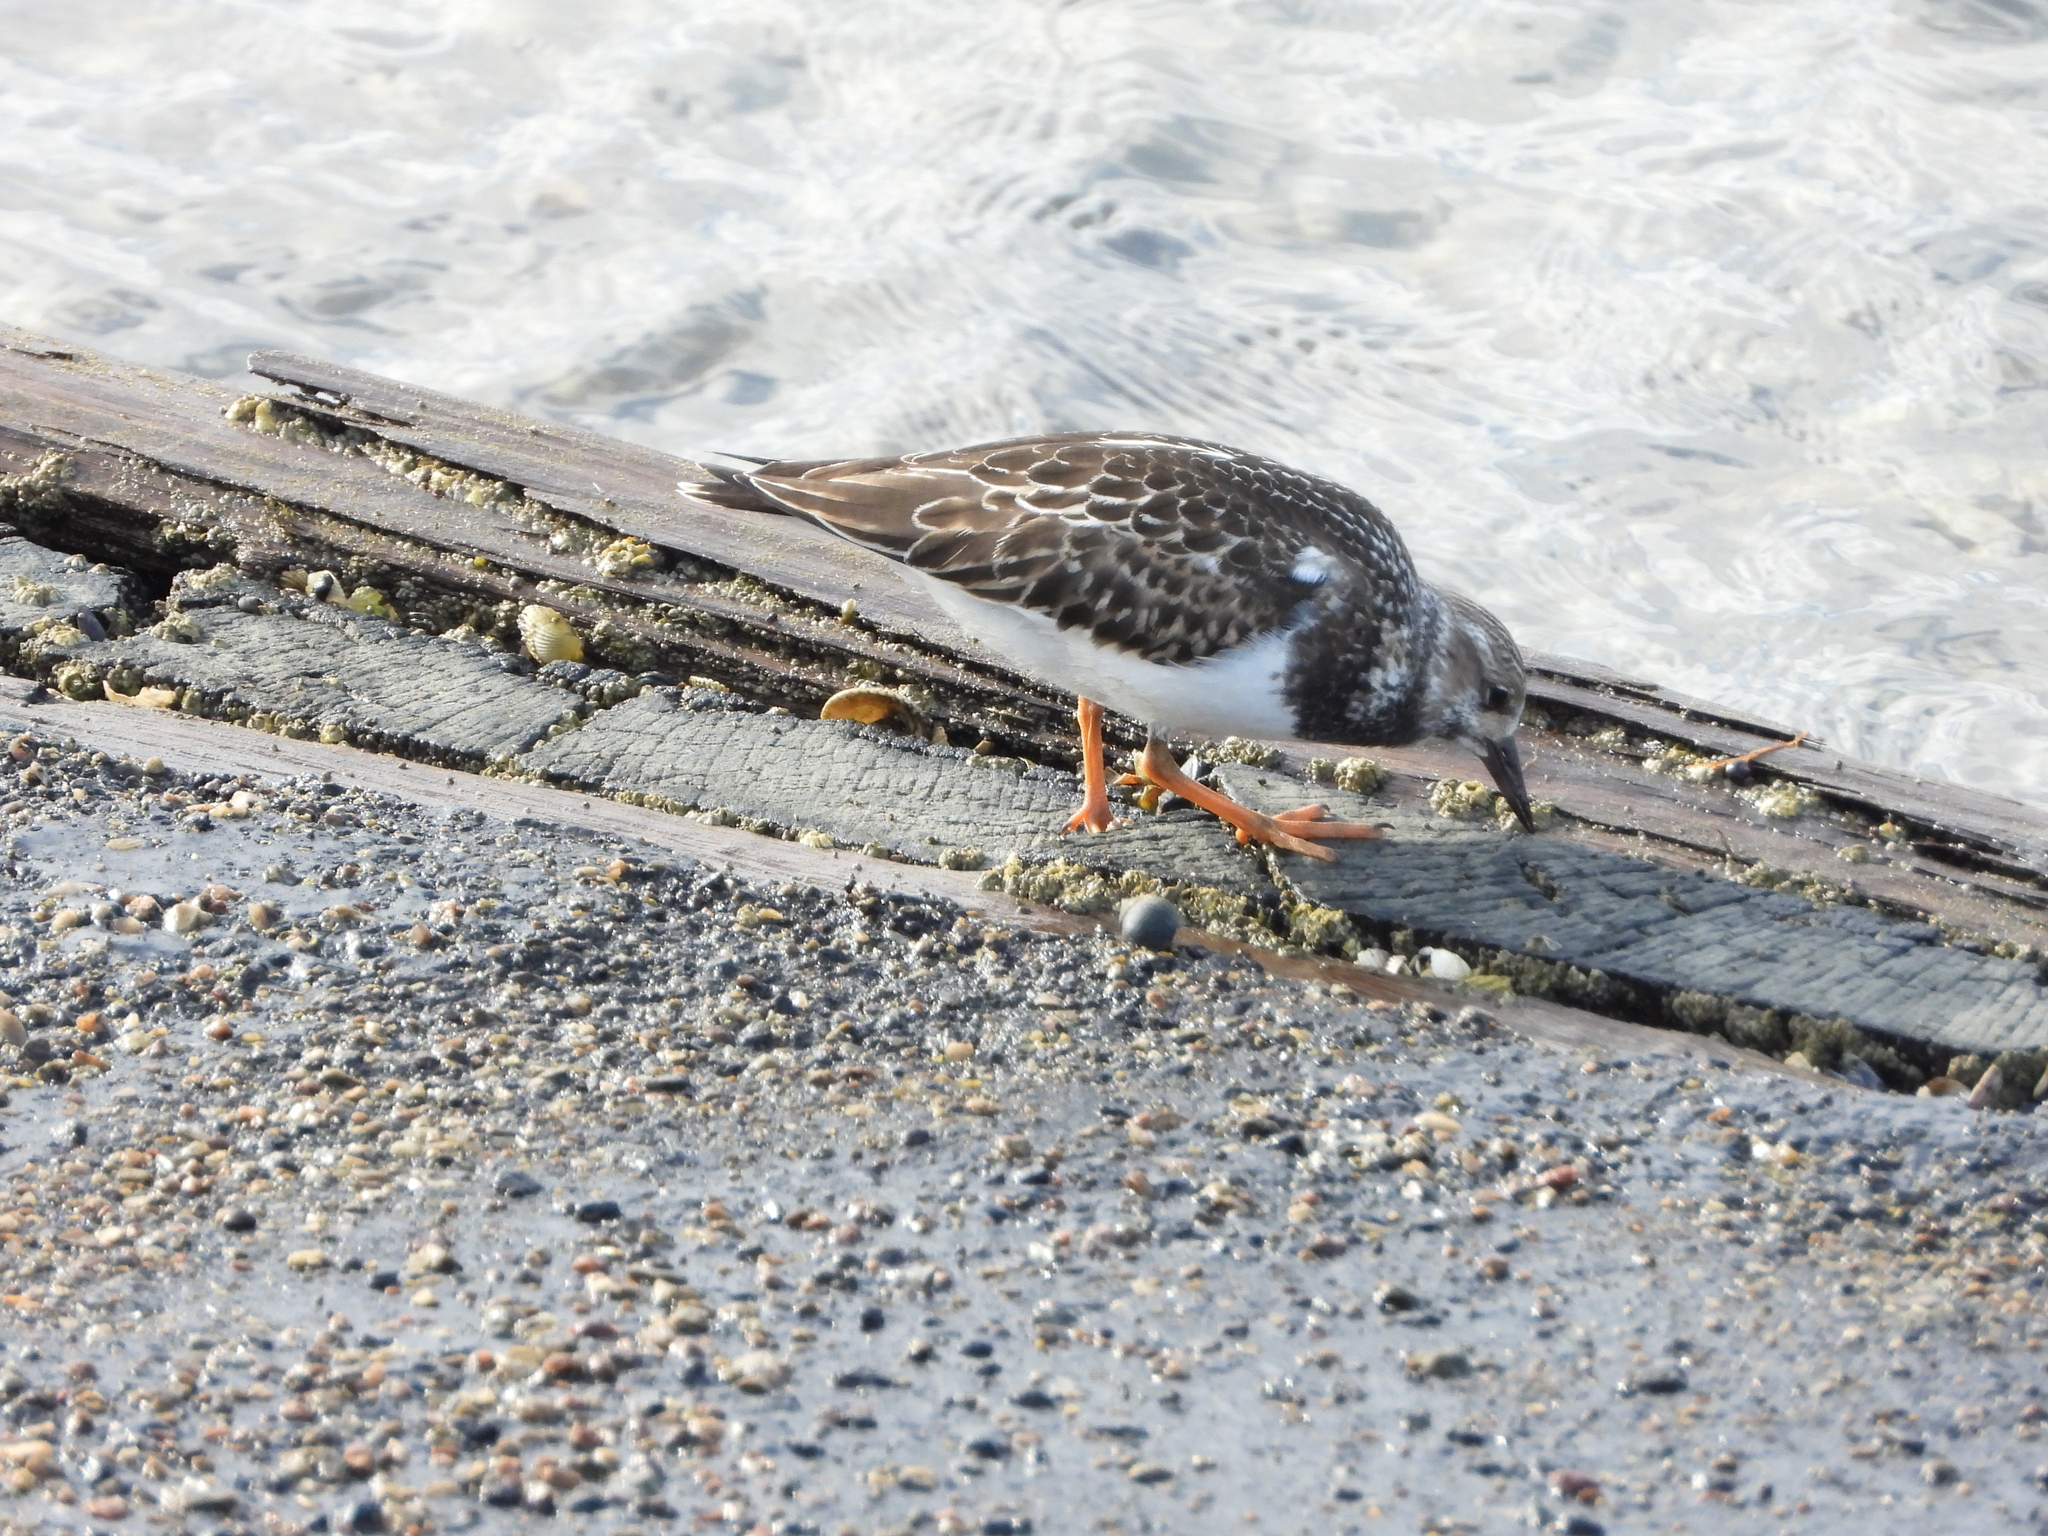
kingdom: Animalia
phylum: Chordata
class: Aves
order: Charadriiformes
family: Scolopacidae
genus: Arenaria
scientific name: Arenaria interpres
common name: Ruddy turnstone
